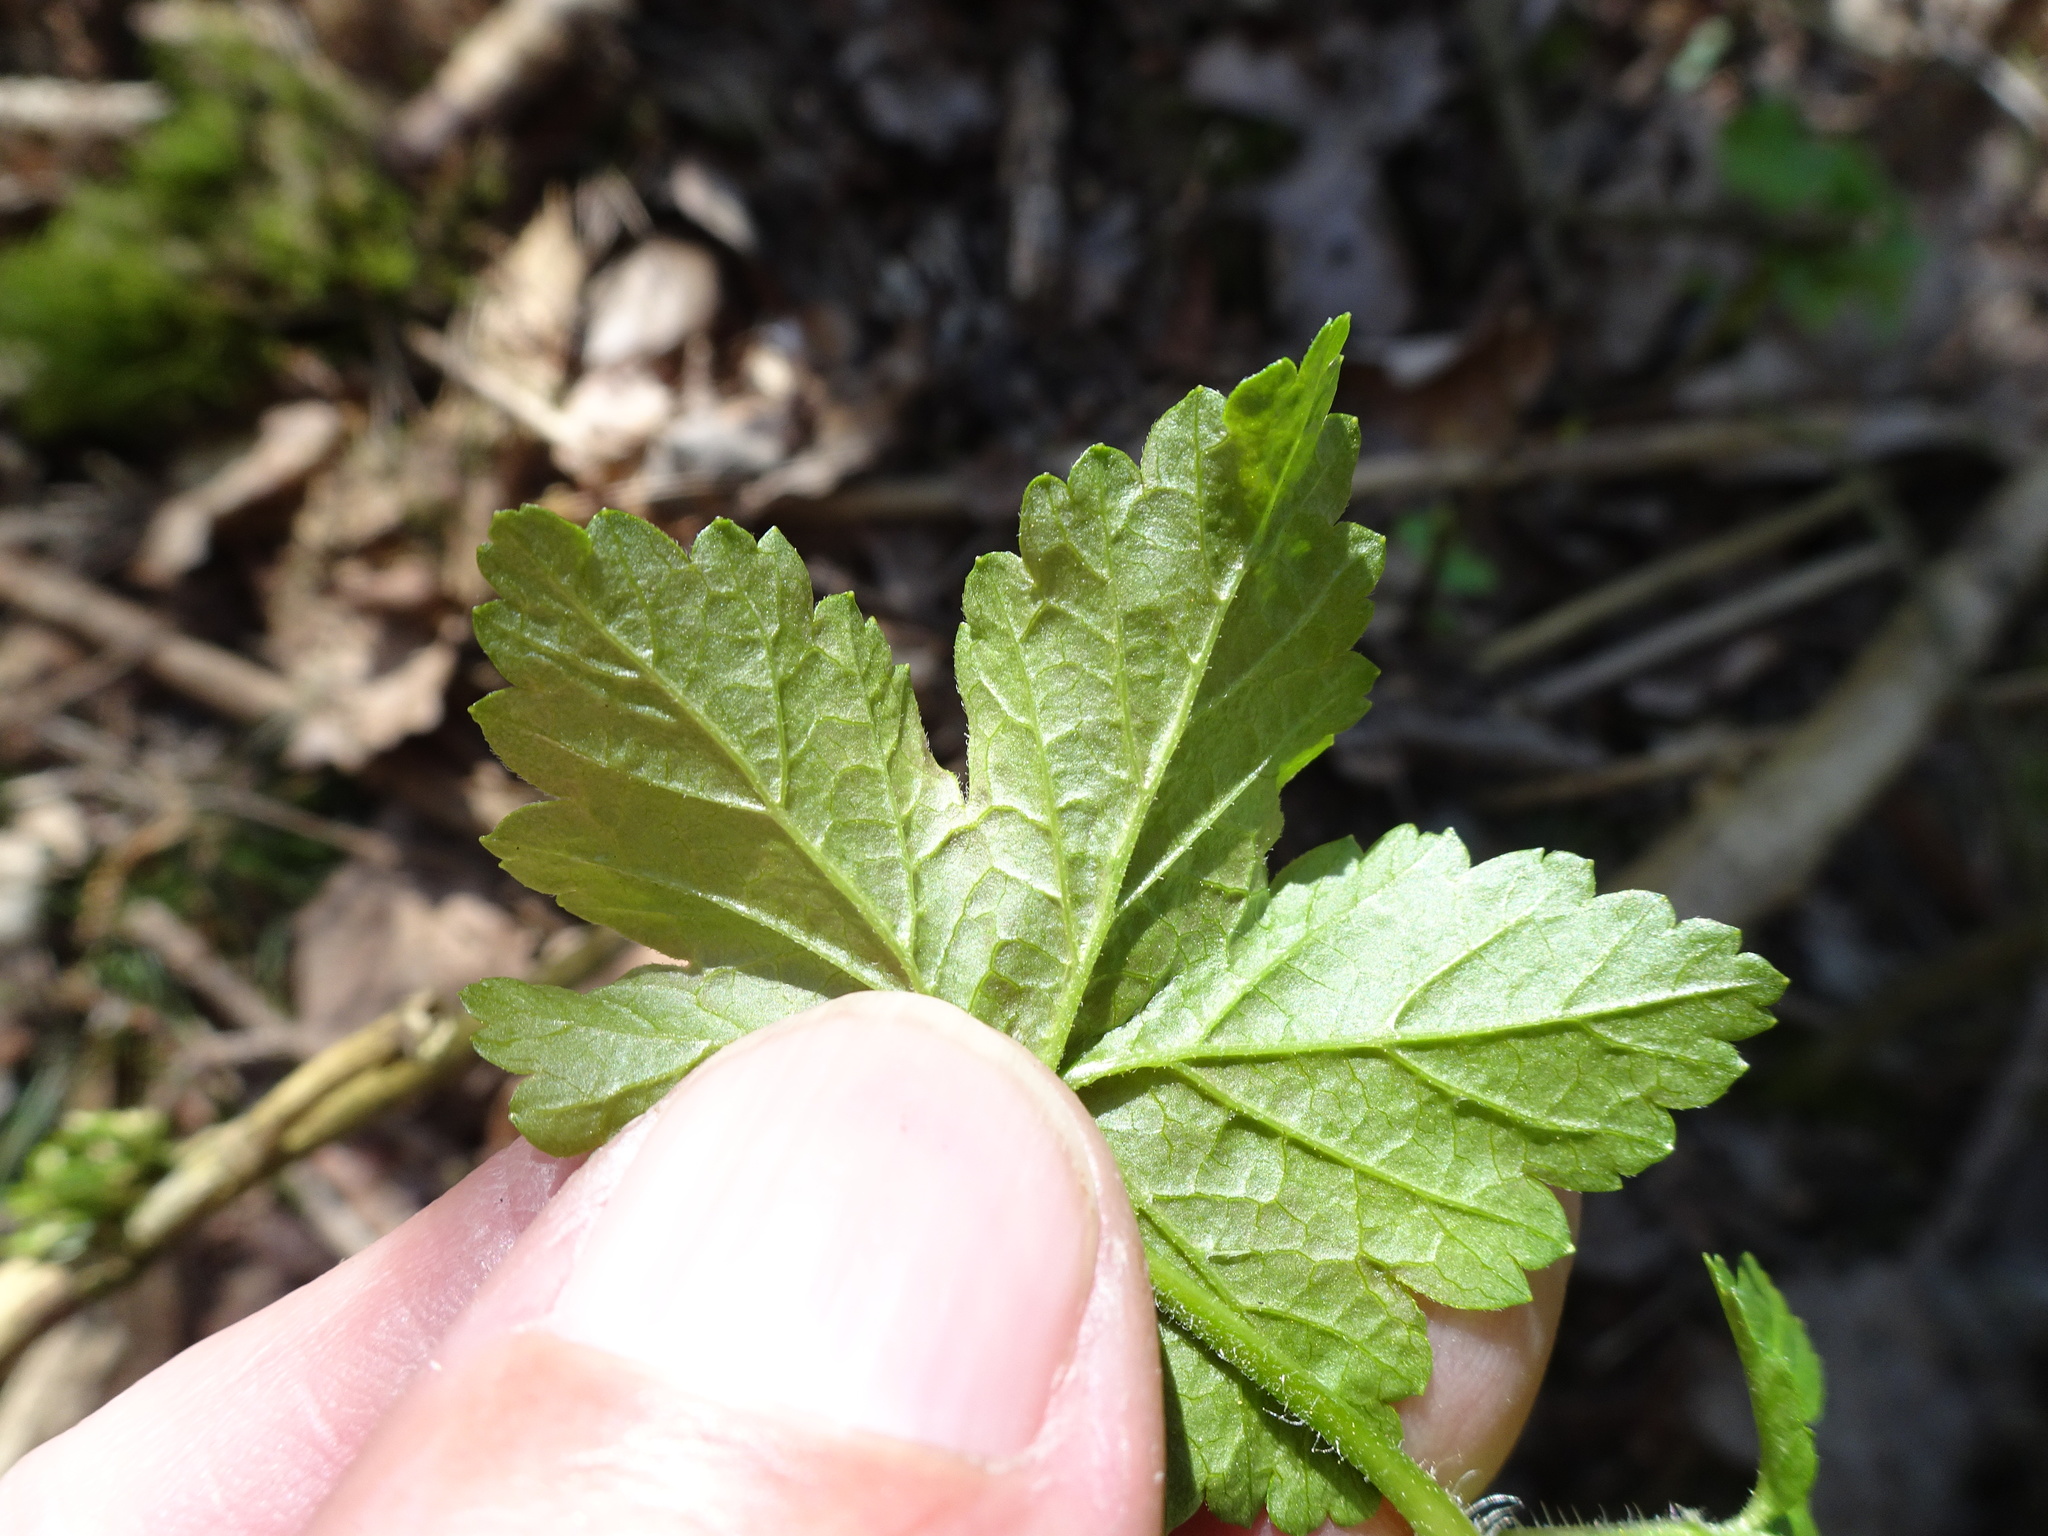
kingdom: Plantae
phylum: Tracheophyta
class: Magnoliopsida
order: Saxifragales
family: Grossulariaceae
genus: Ribes
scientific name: Ribes rubrum
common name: Red currant
